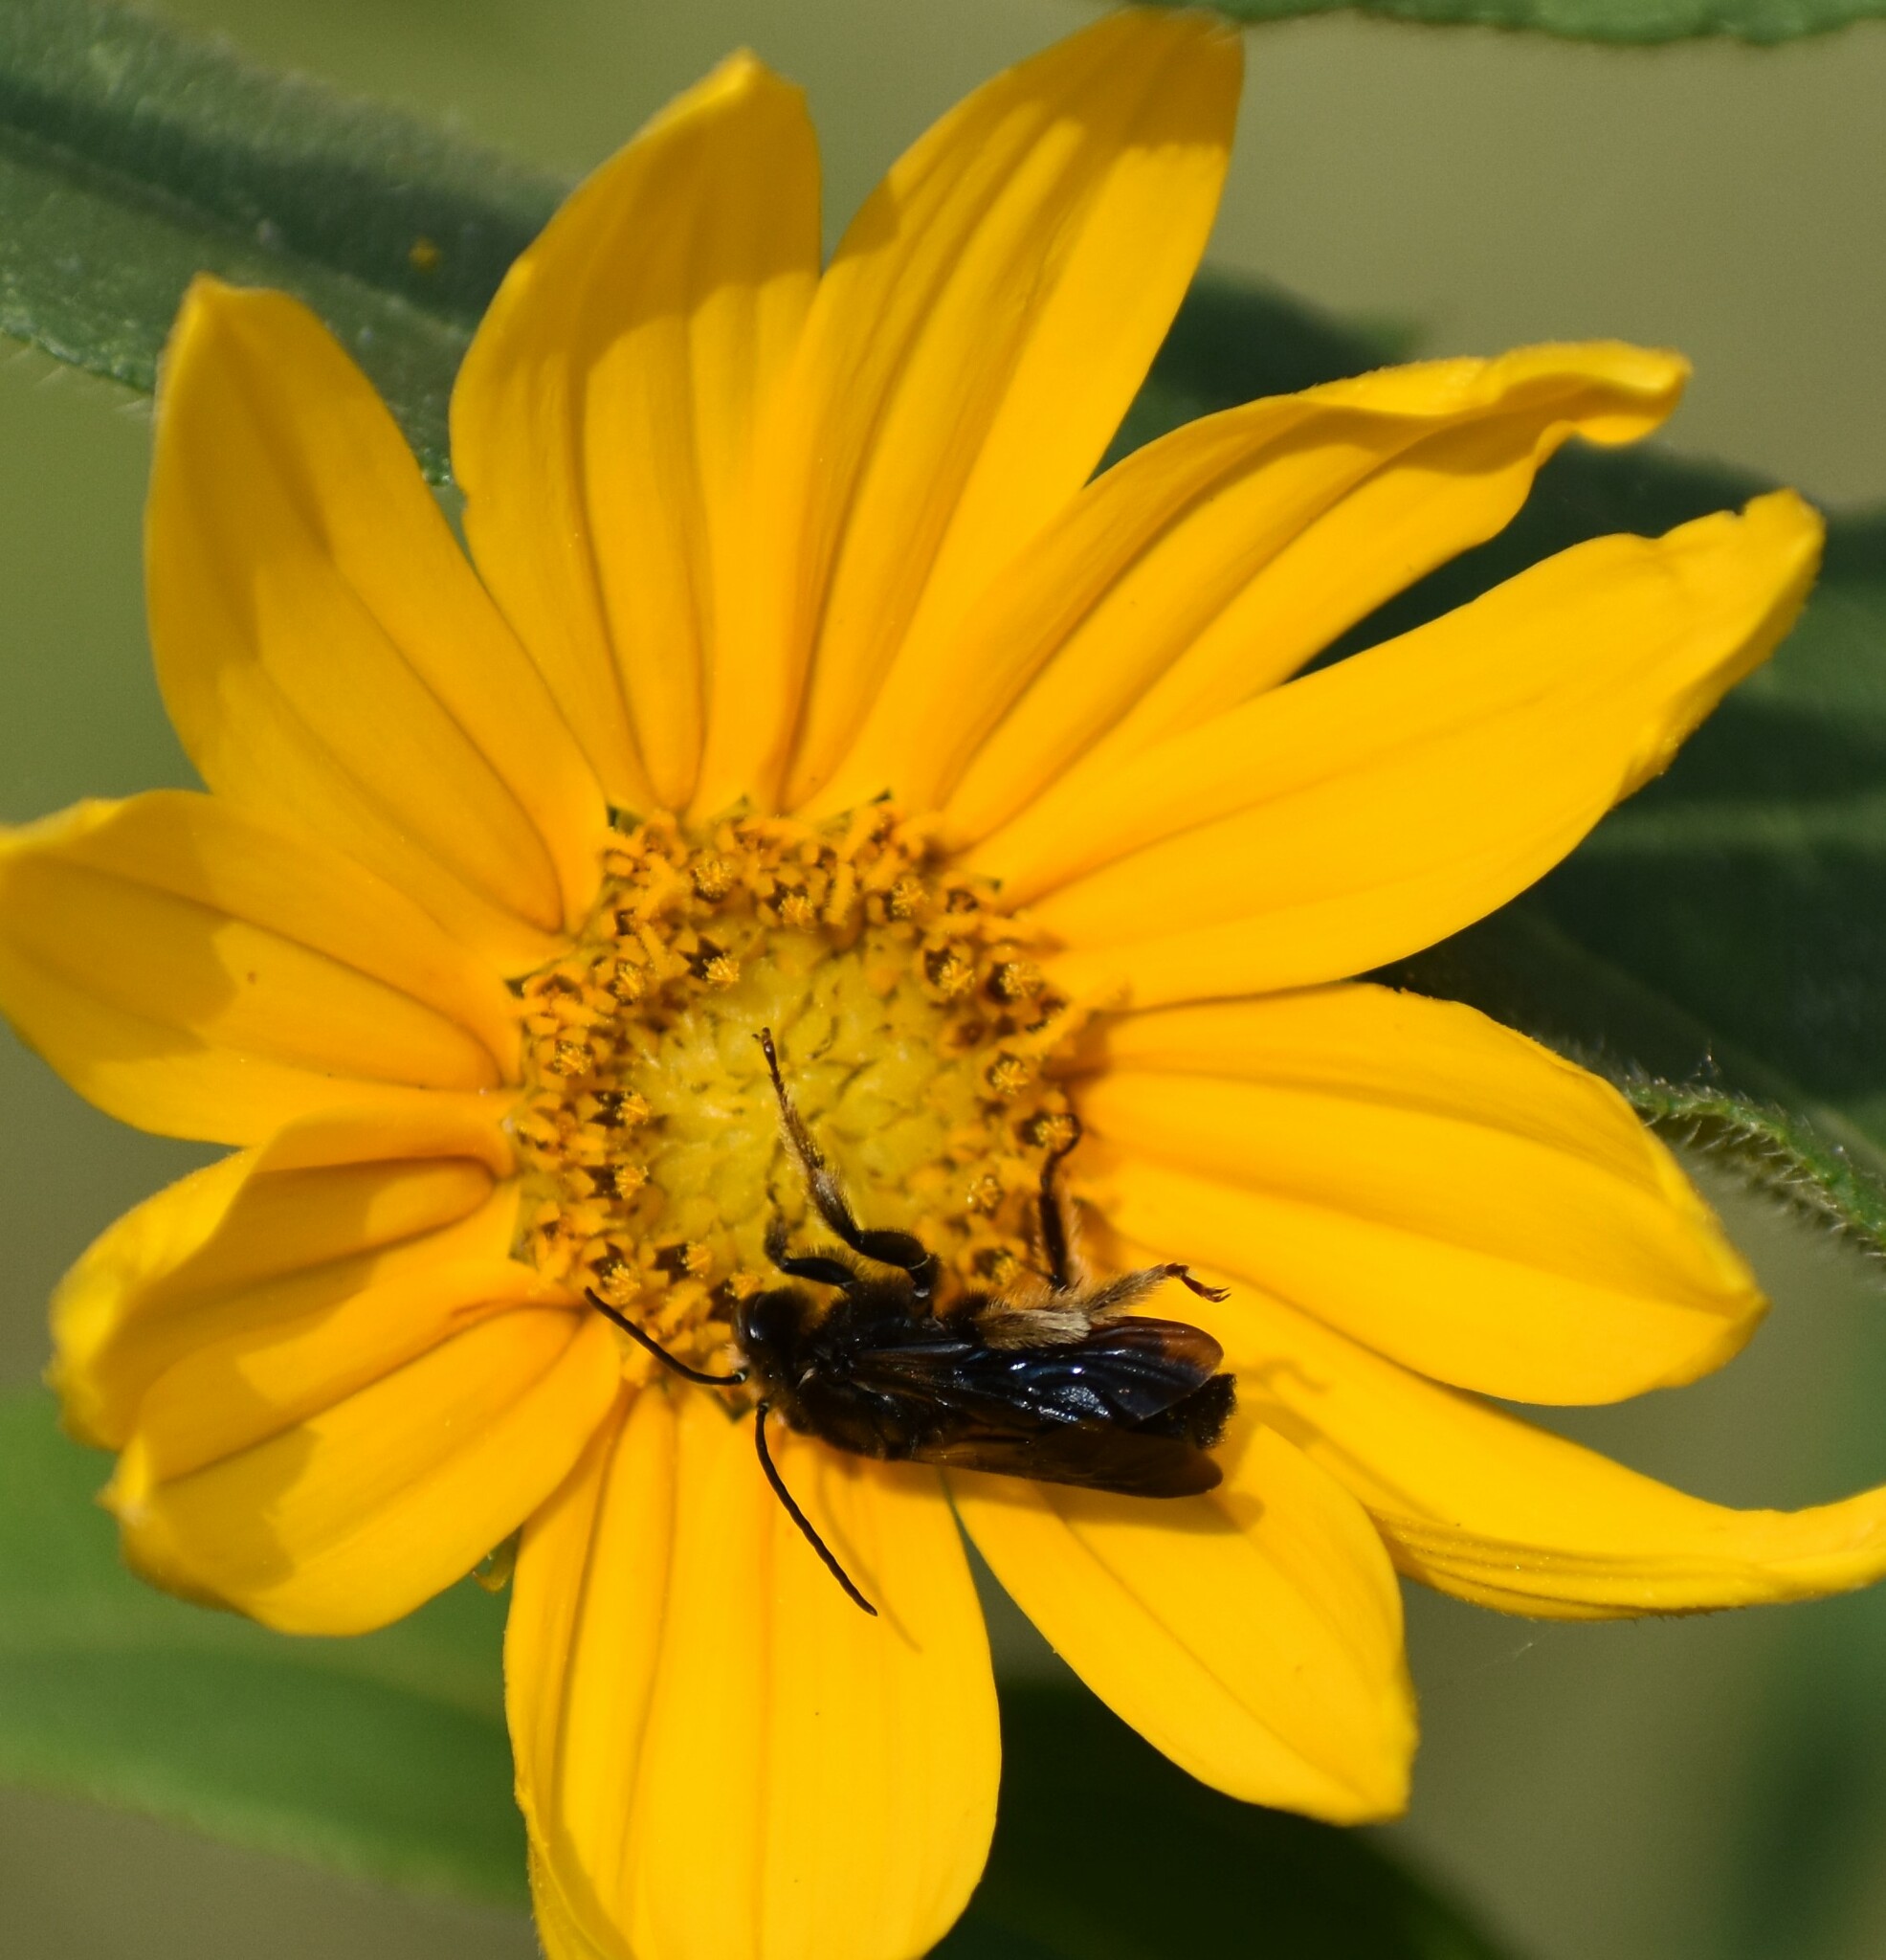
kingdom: Animalia
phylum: Arthropoda
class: Insecta
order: Hymenoptera
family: Apidae
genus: Melissodes
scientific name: Melissodes bimaculatus
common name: Two-spotted long-horned bee
